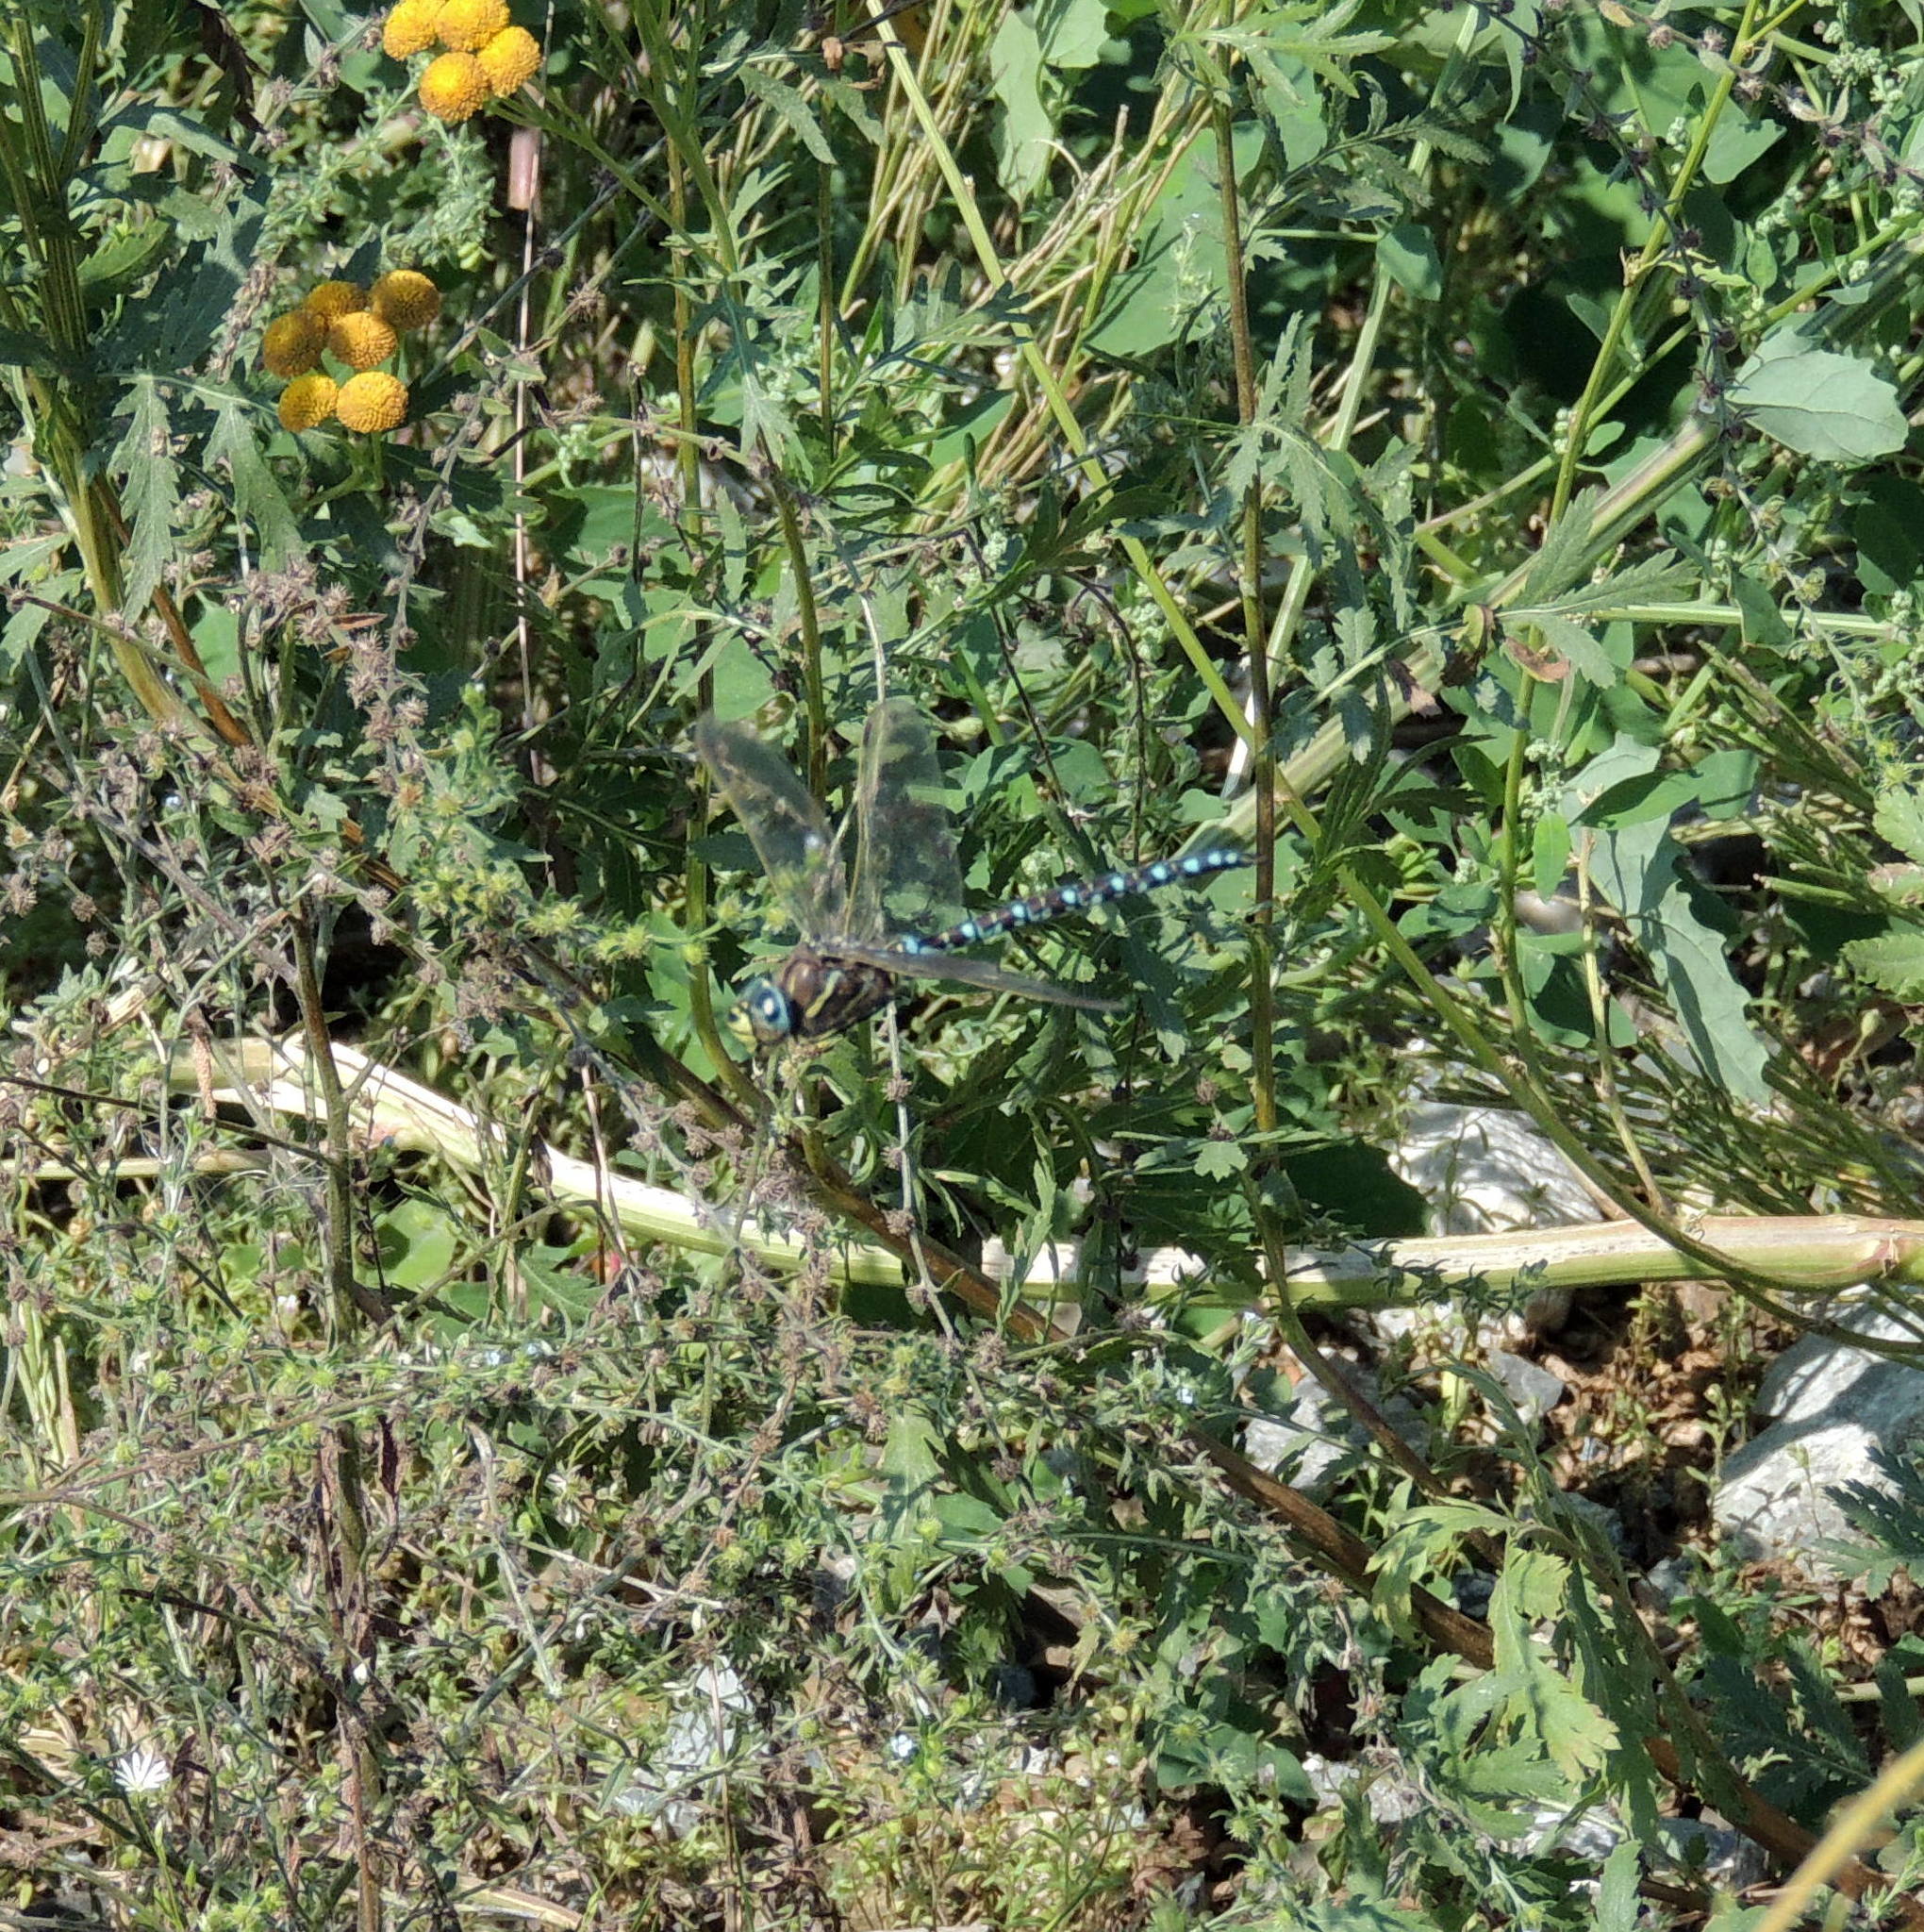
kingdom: Animalia
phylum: Arthropoda
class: Insecta
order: Odonata
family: Aeshnidae
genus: Aeshna
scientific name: Aeshna juncea
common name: Moorland hawker
